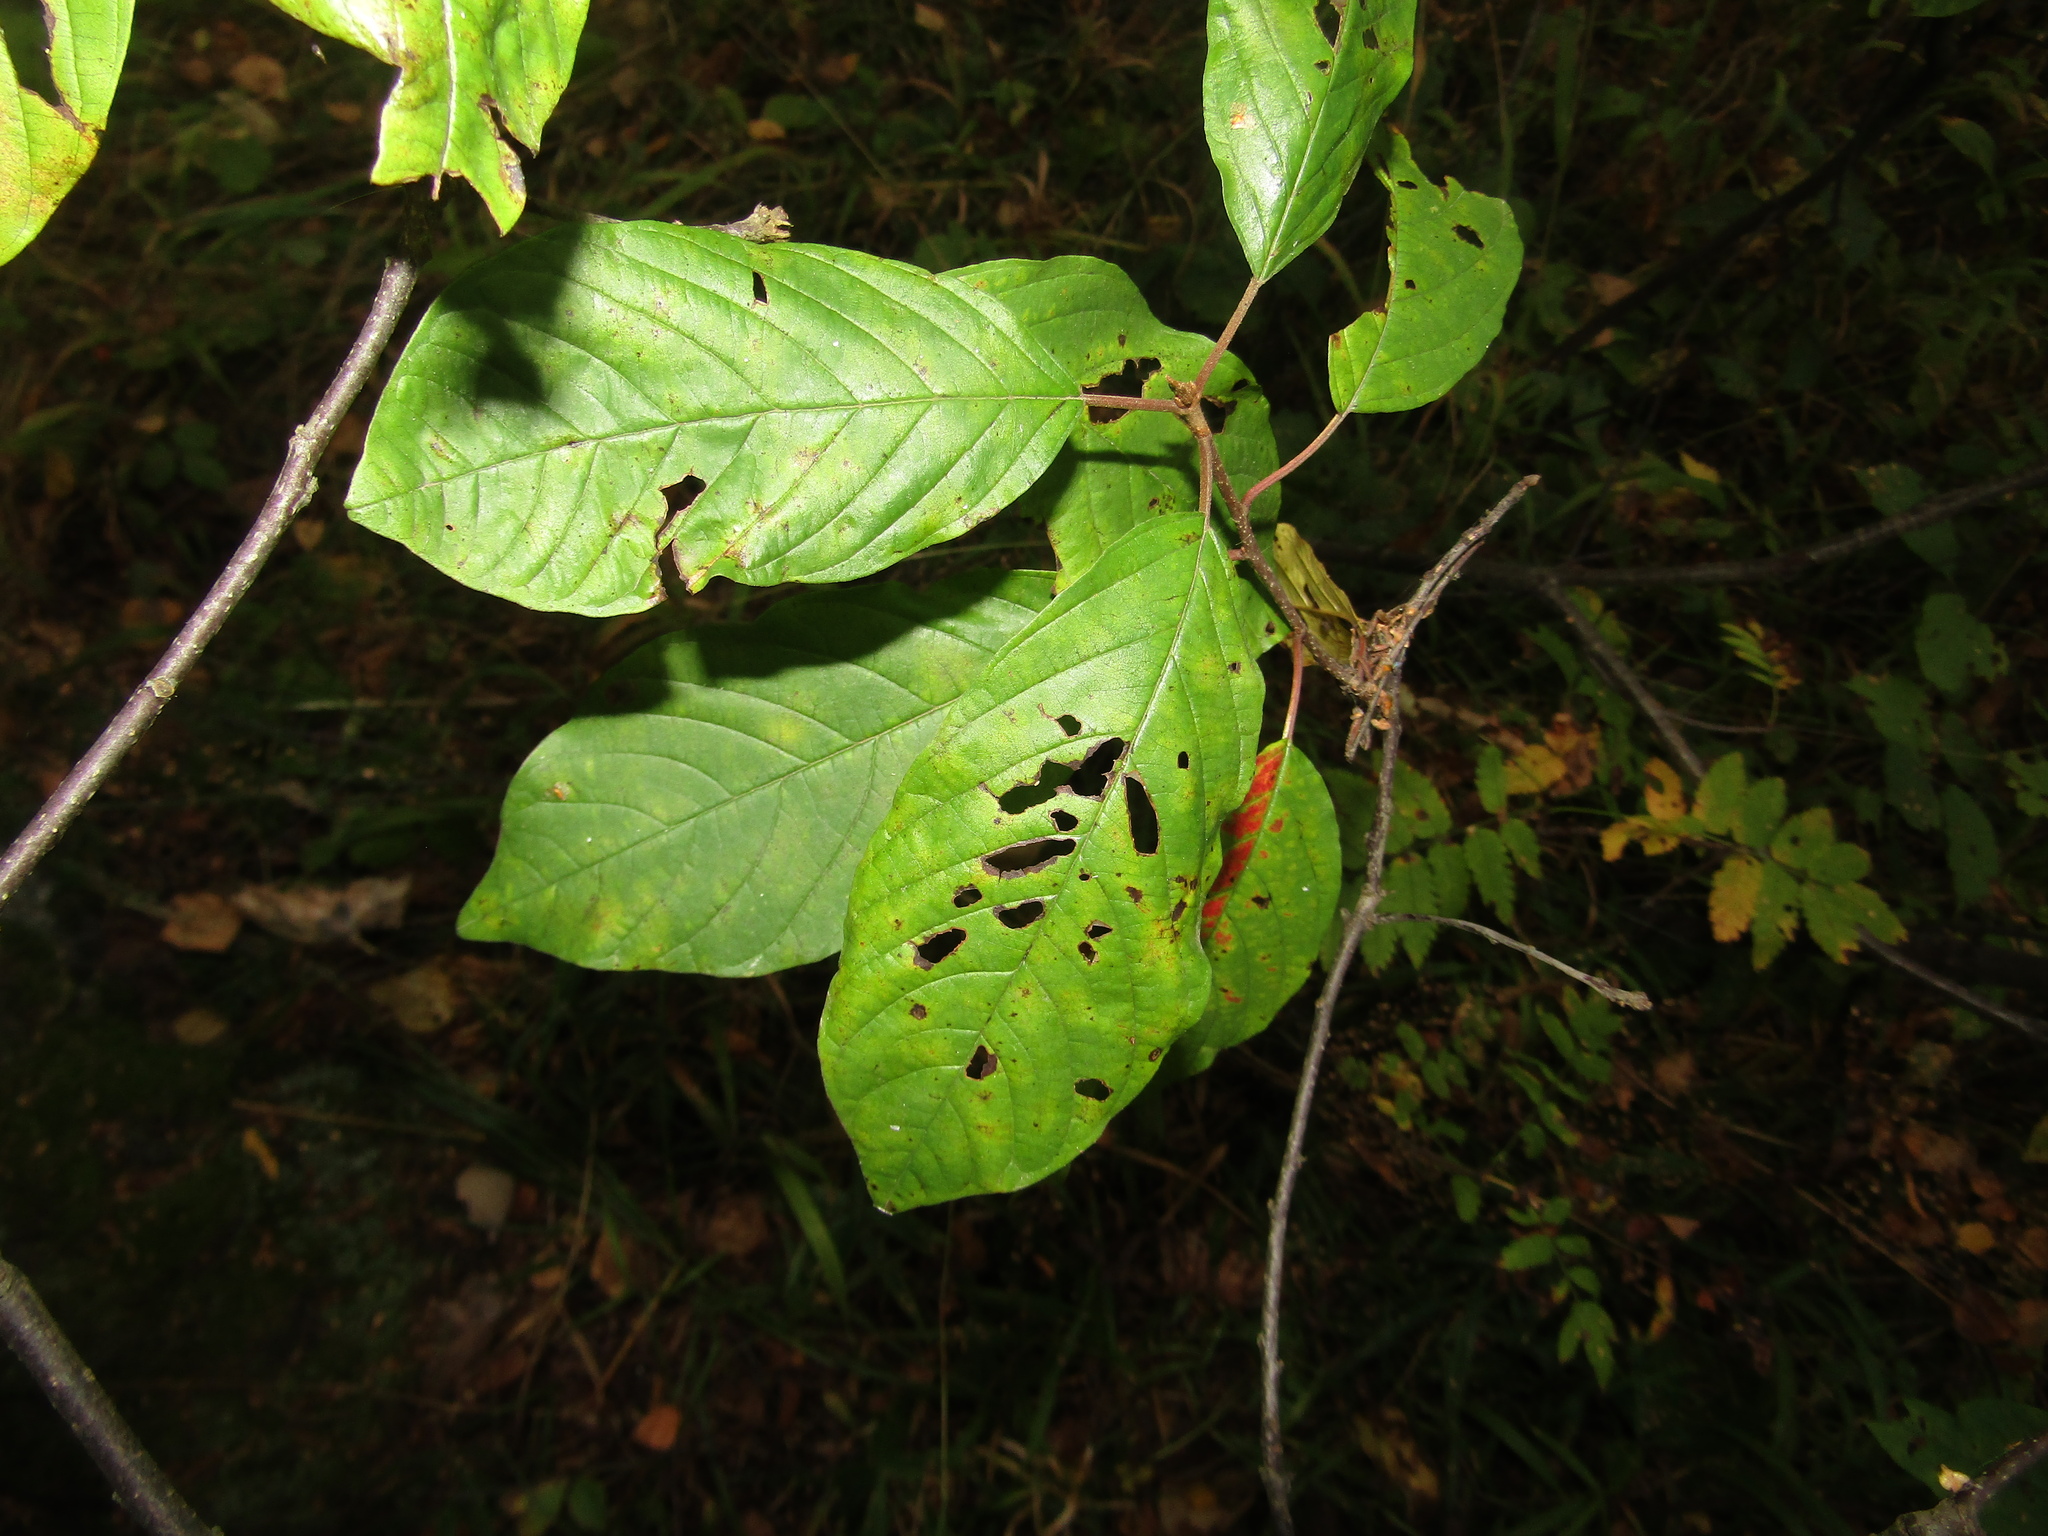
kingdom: Plantae
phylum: Tracheophyta
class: Magnoliopsida
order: Rosales
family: Rhamnaceae
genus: Frangula
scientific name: Frangula alnus
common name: Alder buckthorn
